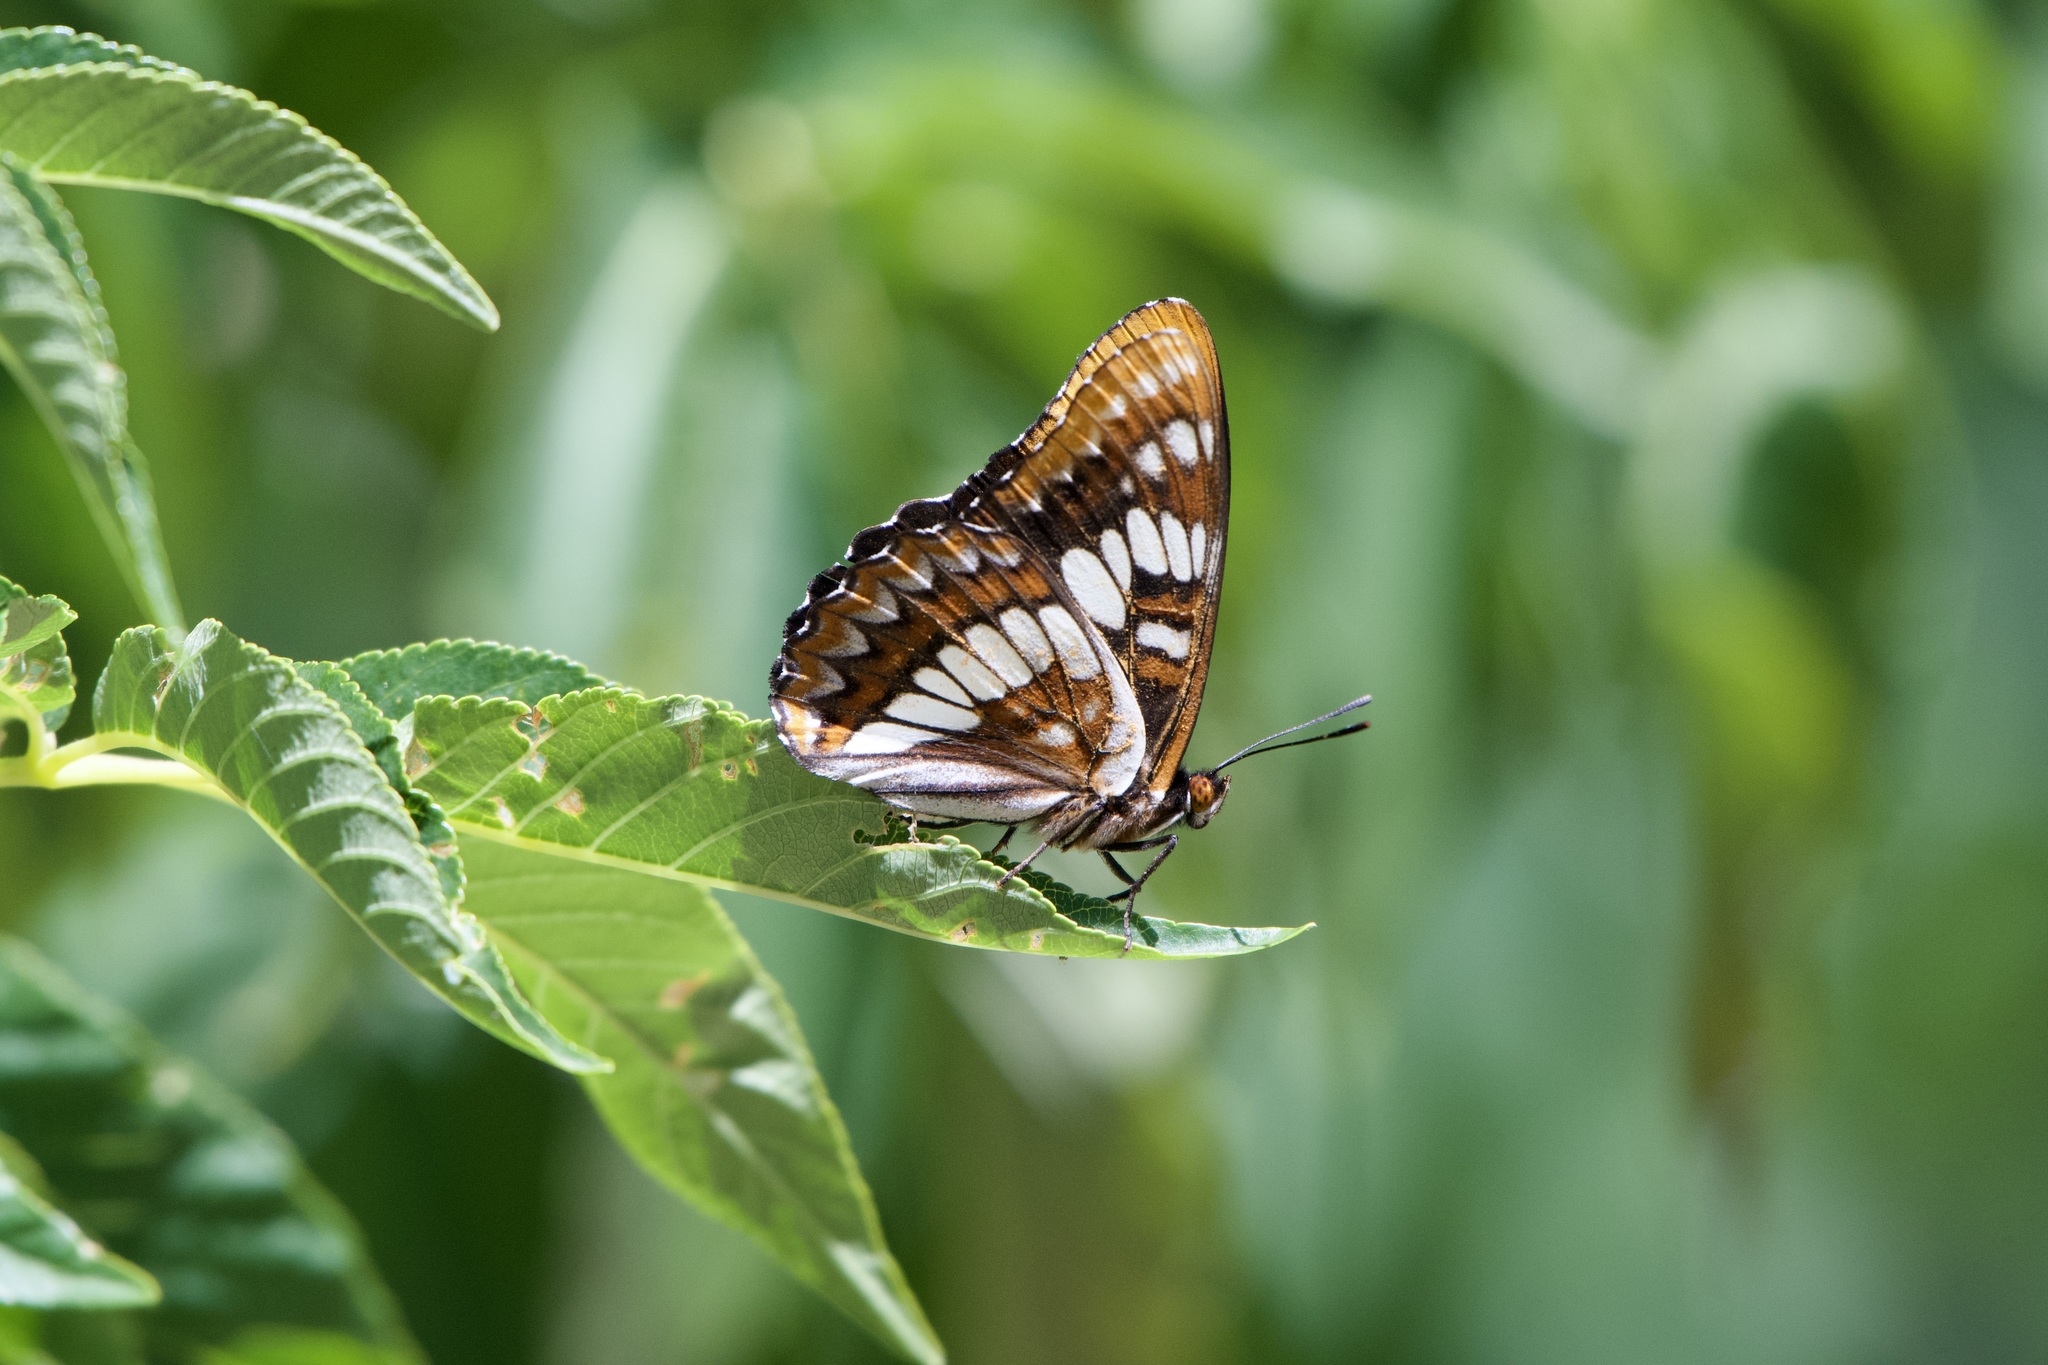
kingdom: Animalia
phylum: Arthropoda
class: Insecta
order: Lepidoptera
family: Nymphalidae
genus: Limenitis
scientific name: Limenitis lorquini
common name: Lorquin's admiral
